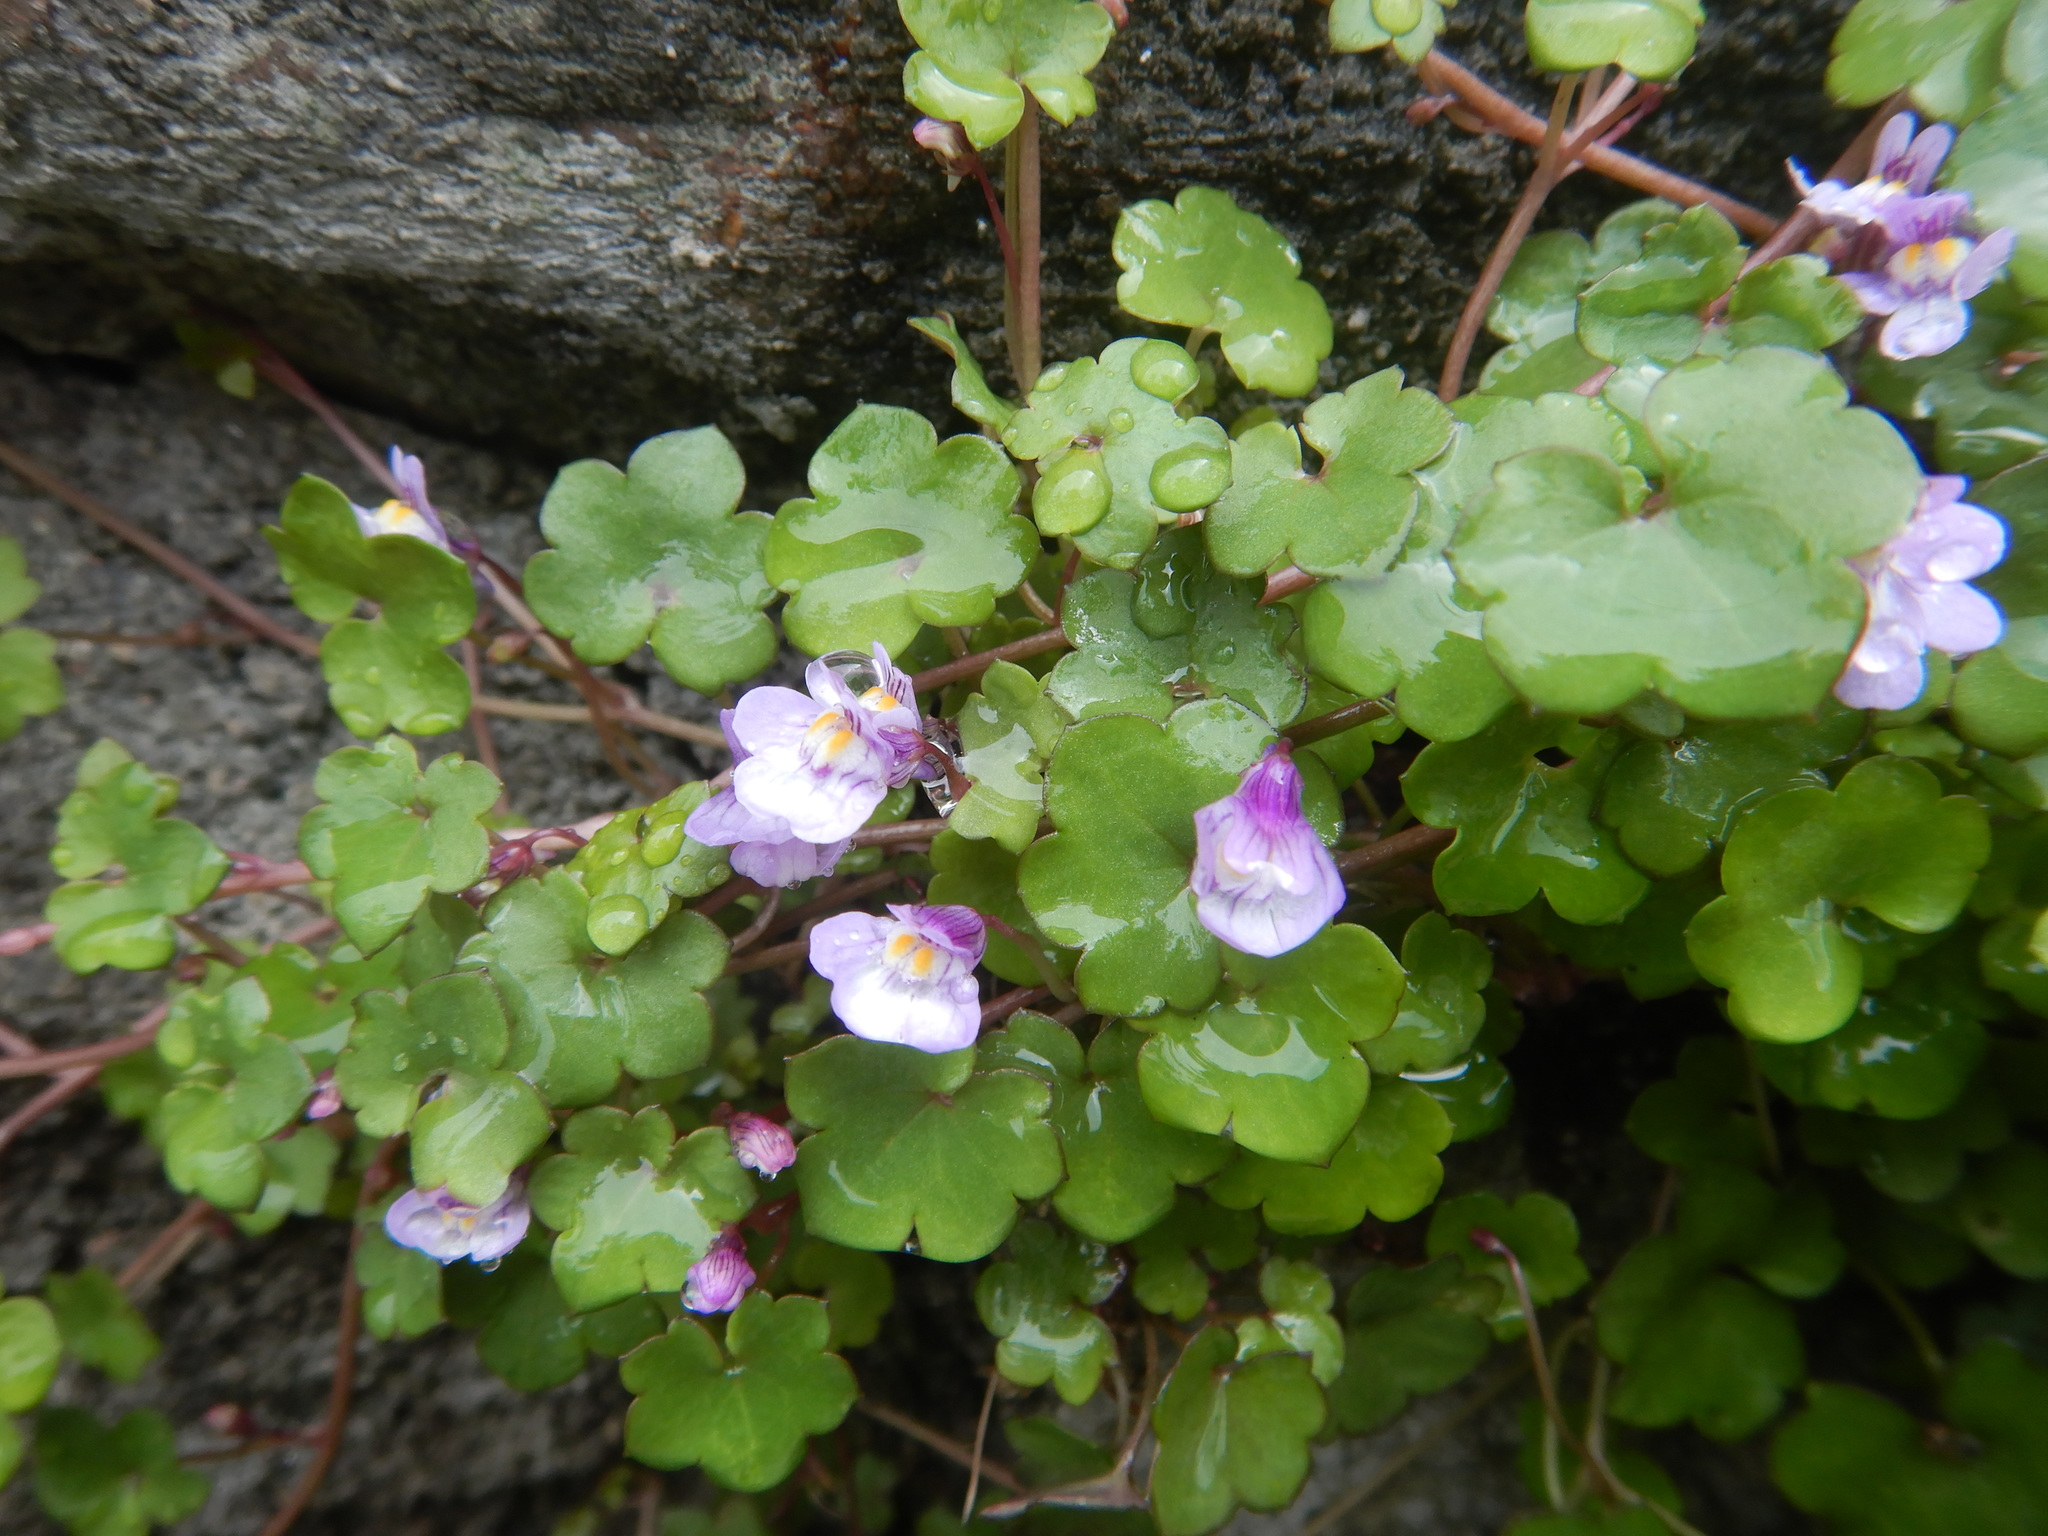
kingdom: Plantae
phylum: Tracheophyta
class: Magnoliopsida
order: Lamiales
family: Plantaginaceae
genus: Cymbalaria
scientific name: Cymbalaria muralis
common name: Ivy-leaved toadflax
